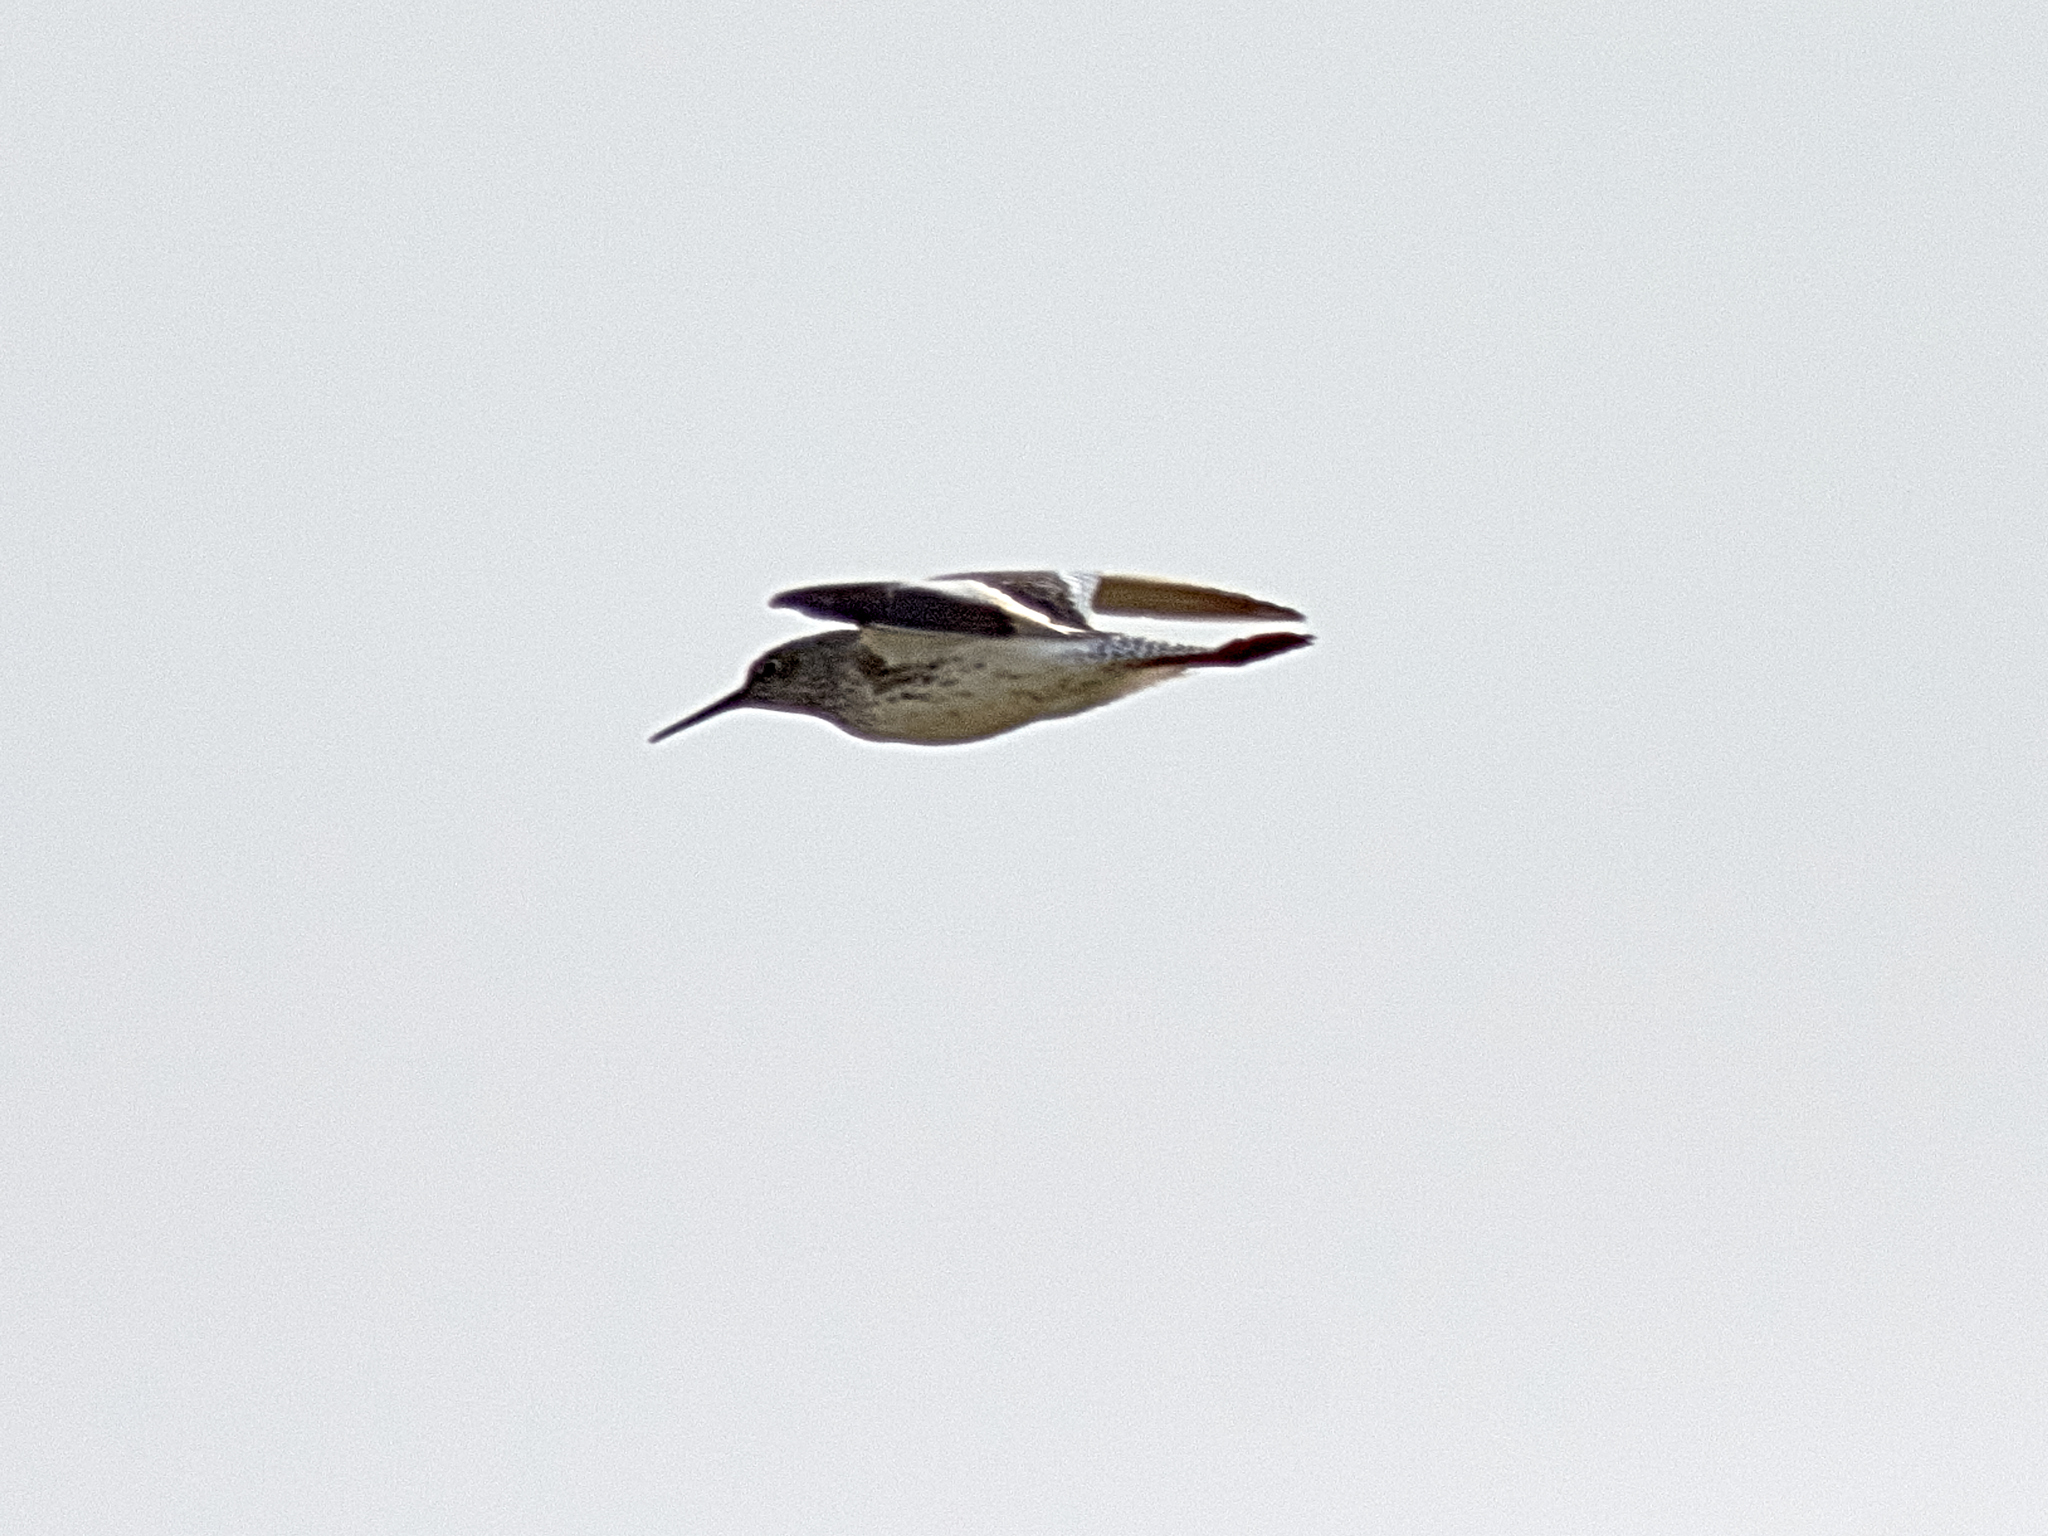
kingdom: Animalia
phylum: Chordata
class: Aves
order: Charadriiformes
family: Scolopacidae
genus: Tringa
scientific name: Tringa totanus
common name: Common redshank
